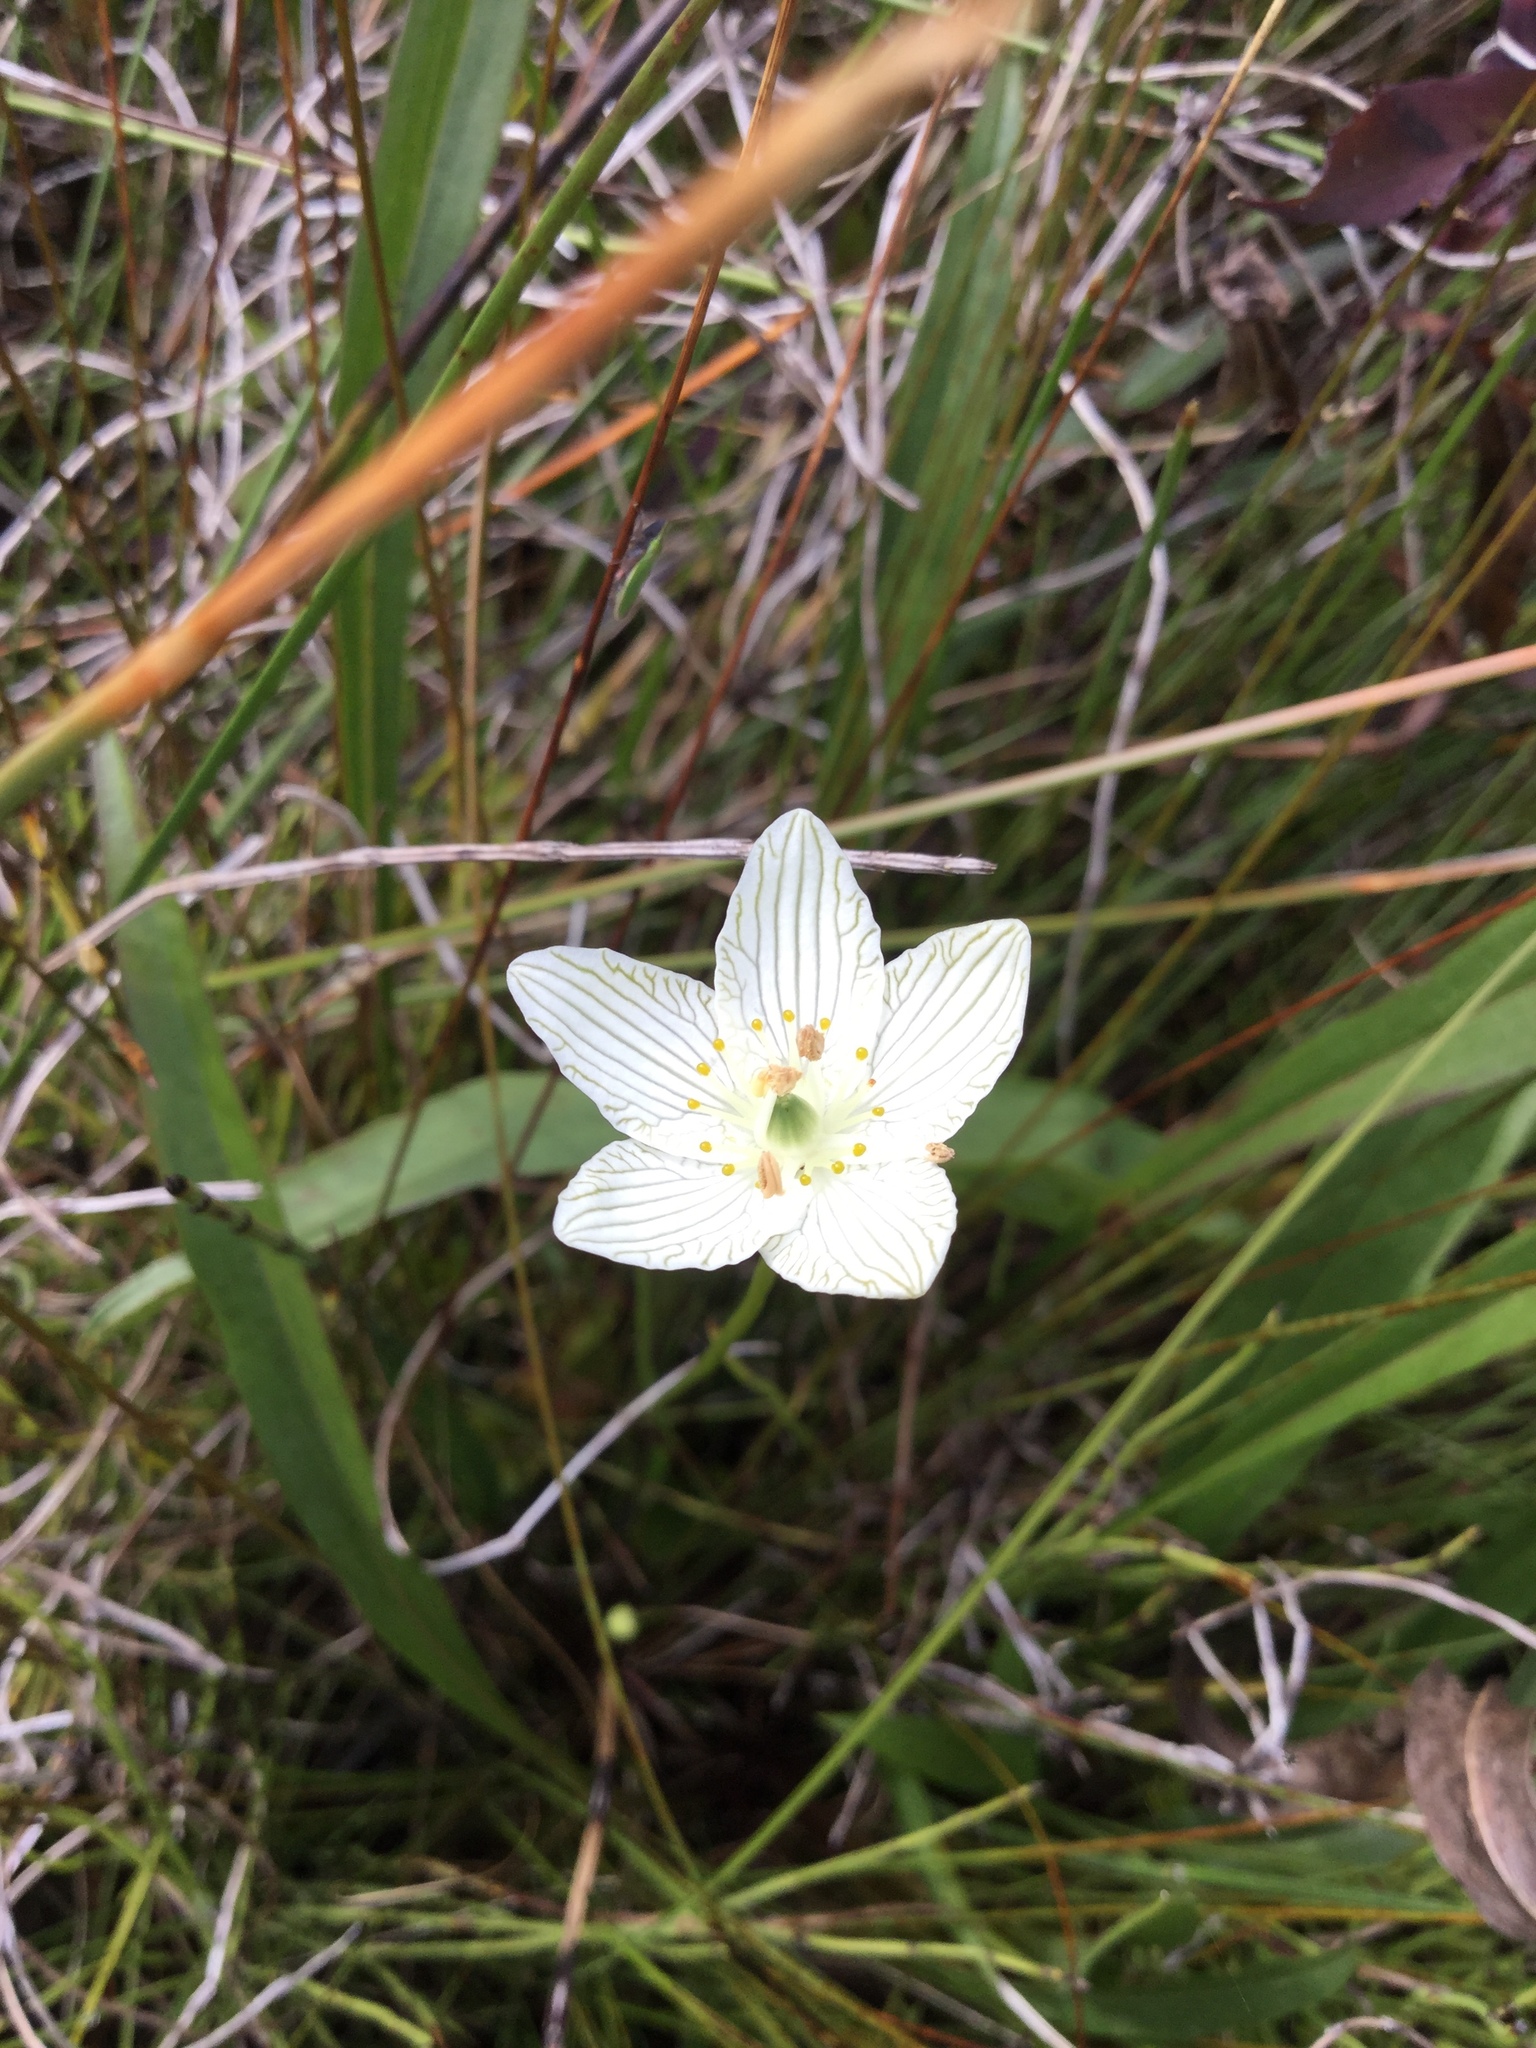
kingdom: Plantae
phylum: Tracheophyta
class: Magnoliopsida
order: Celastrales
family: Parnassiaceae
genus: Parnassia
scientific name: Parnassia glauca
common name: American grass-of-parnassus
